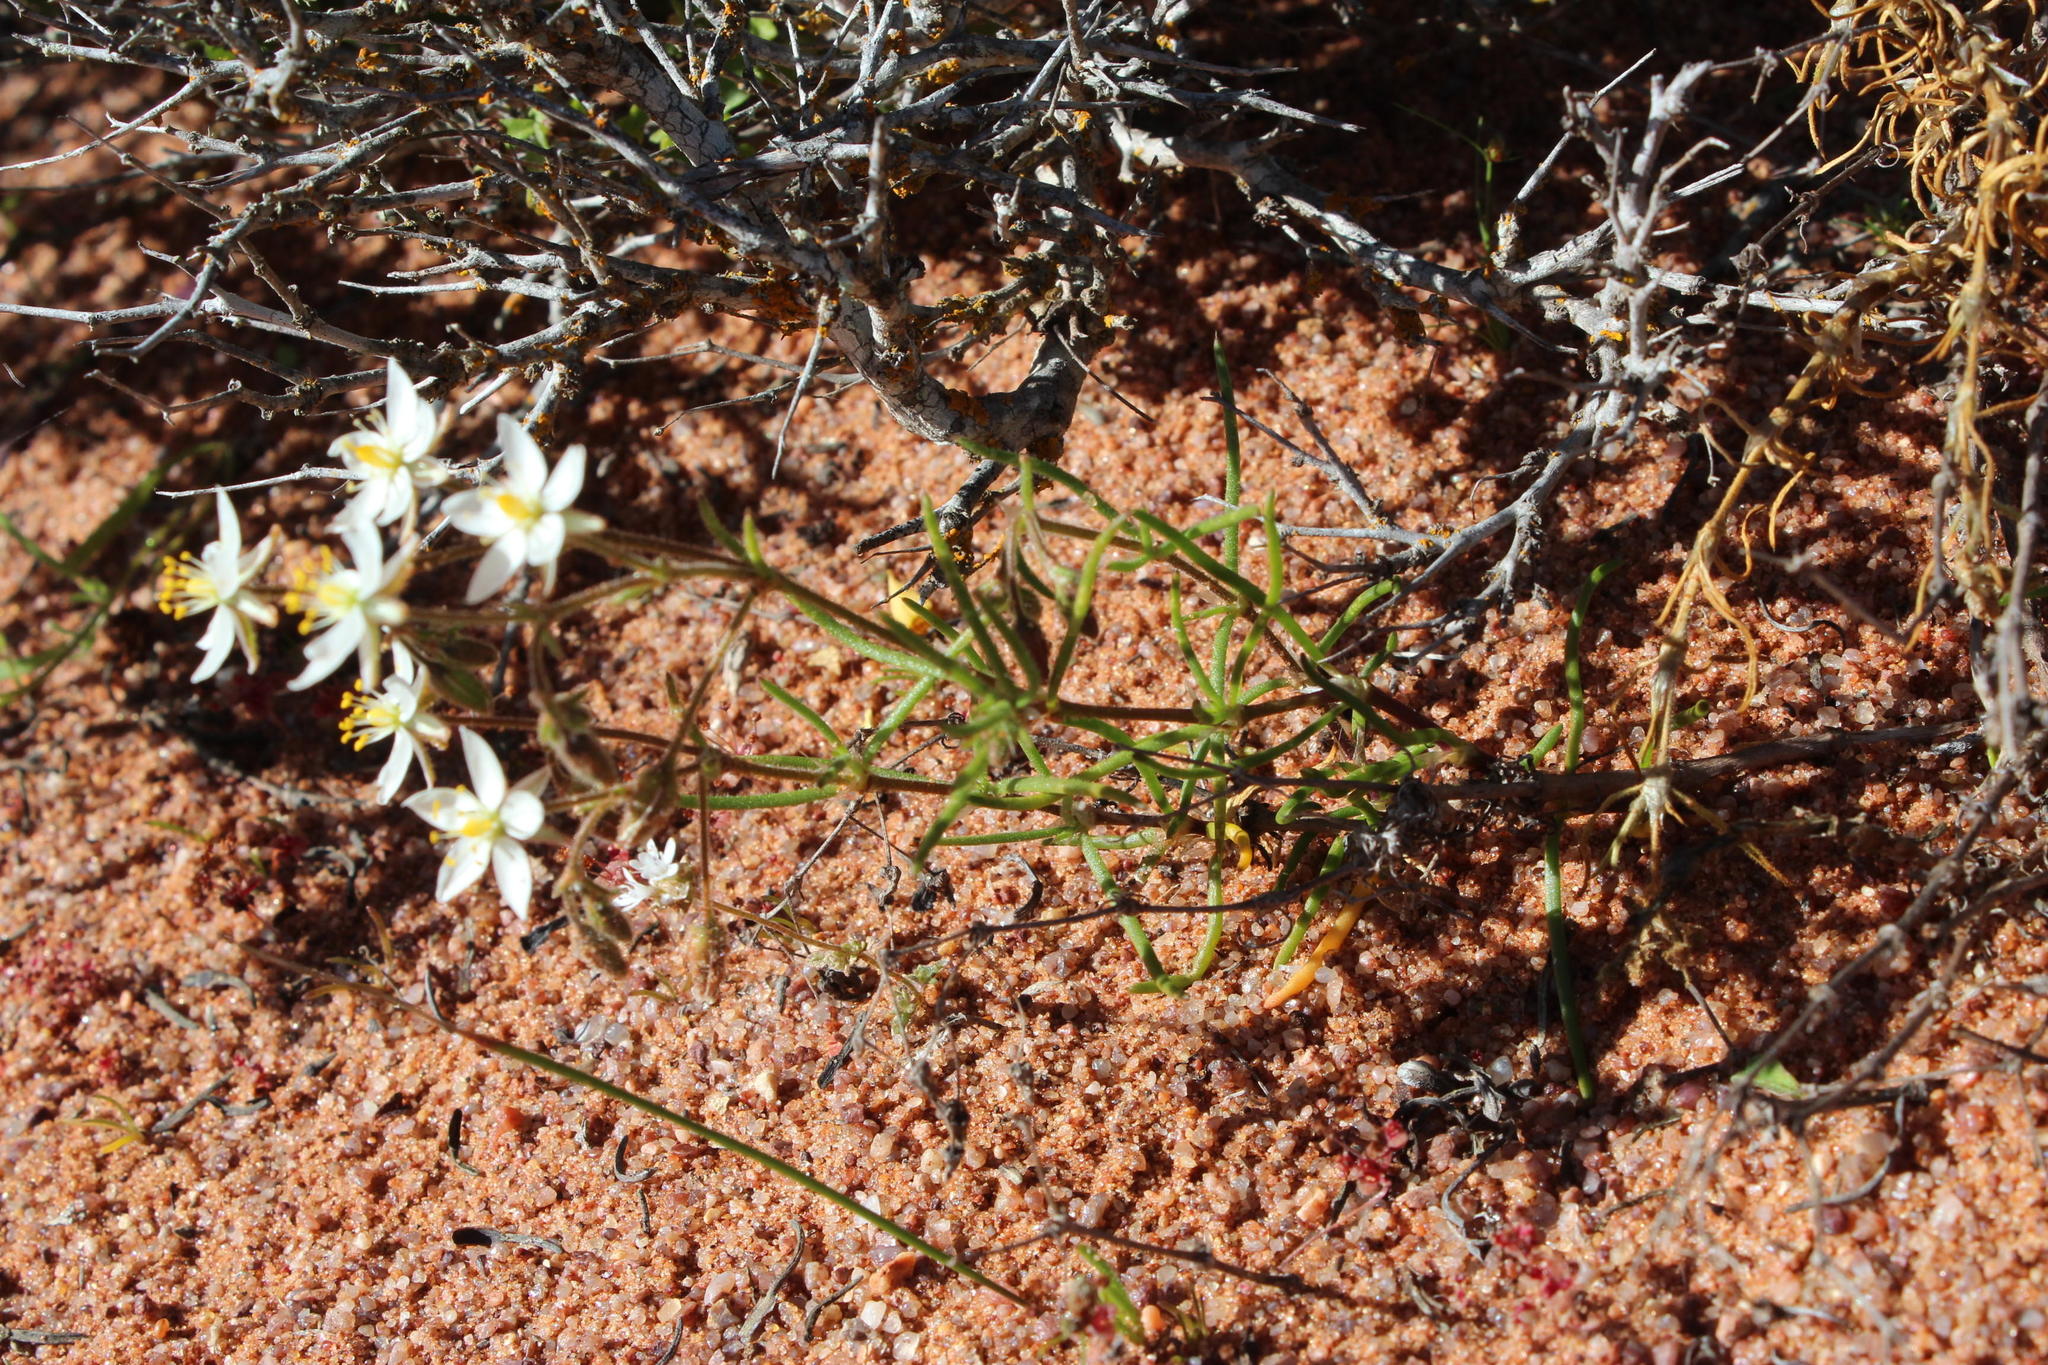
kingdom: Plantae
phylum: Tracheophyta
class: Magnoliopsida
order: Caryophyllales
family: Caryophyllaceae
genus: Spergularia
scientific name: Spergularia bocconei
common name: Greek sea-spurrey
